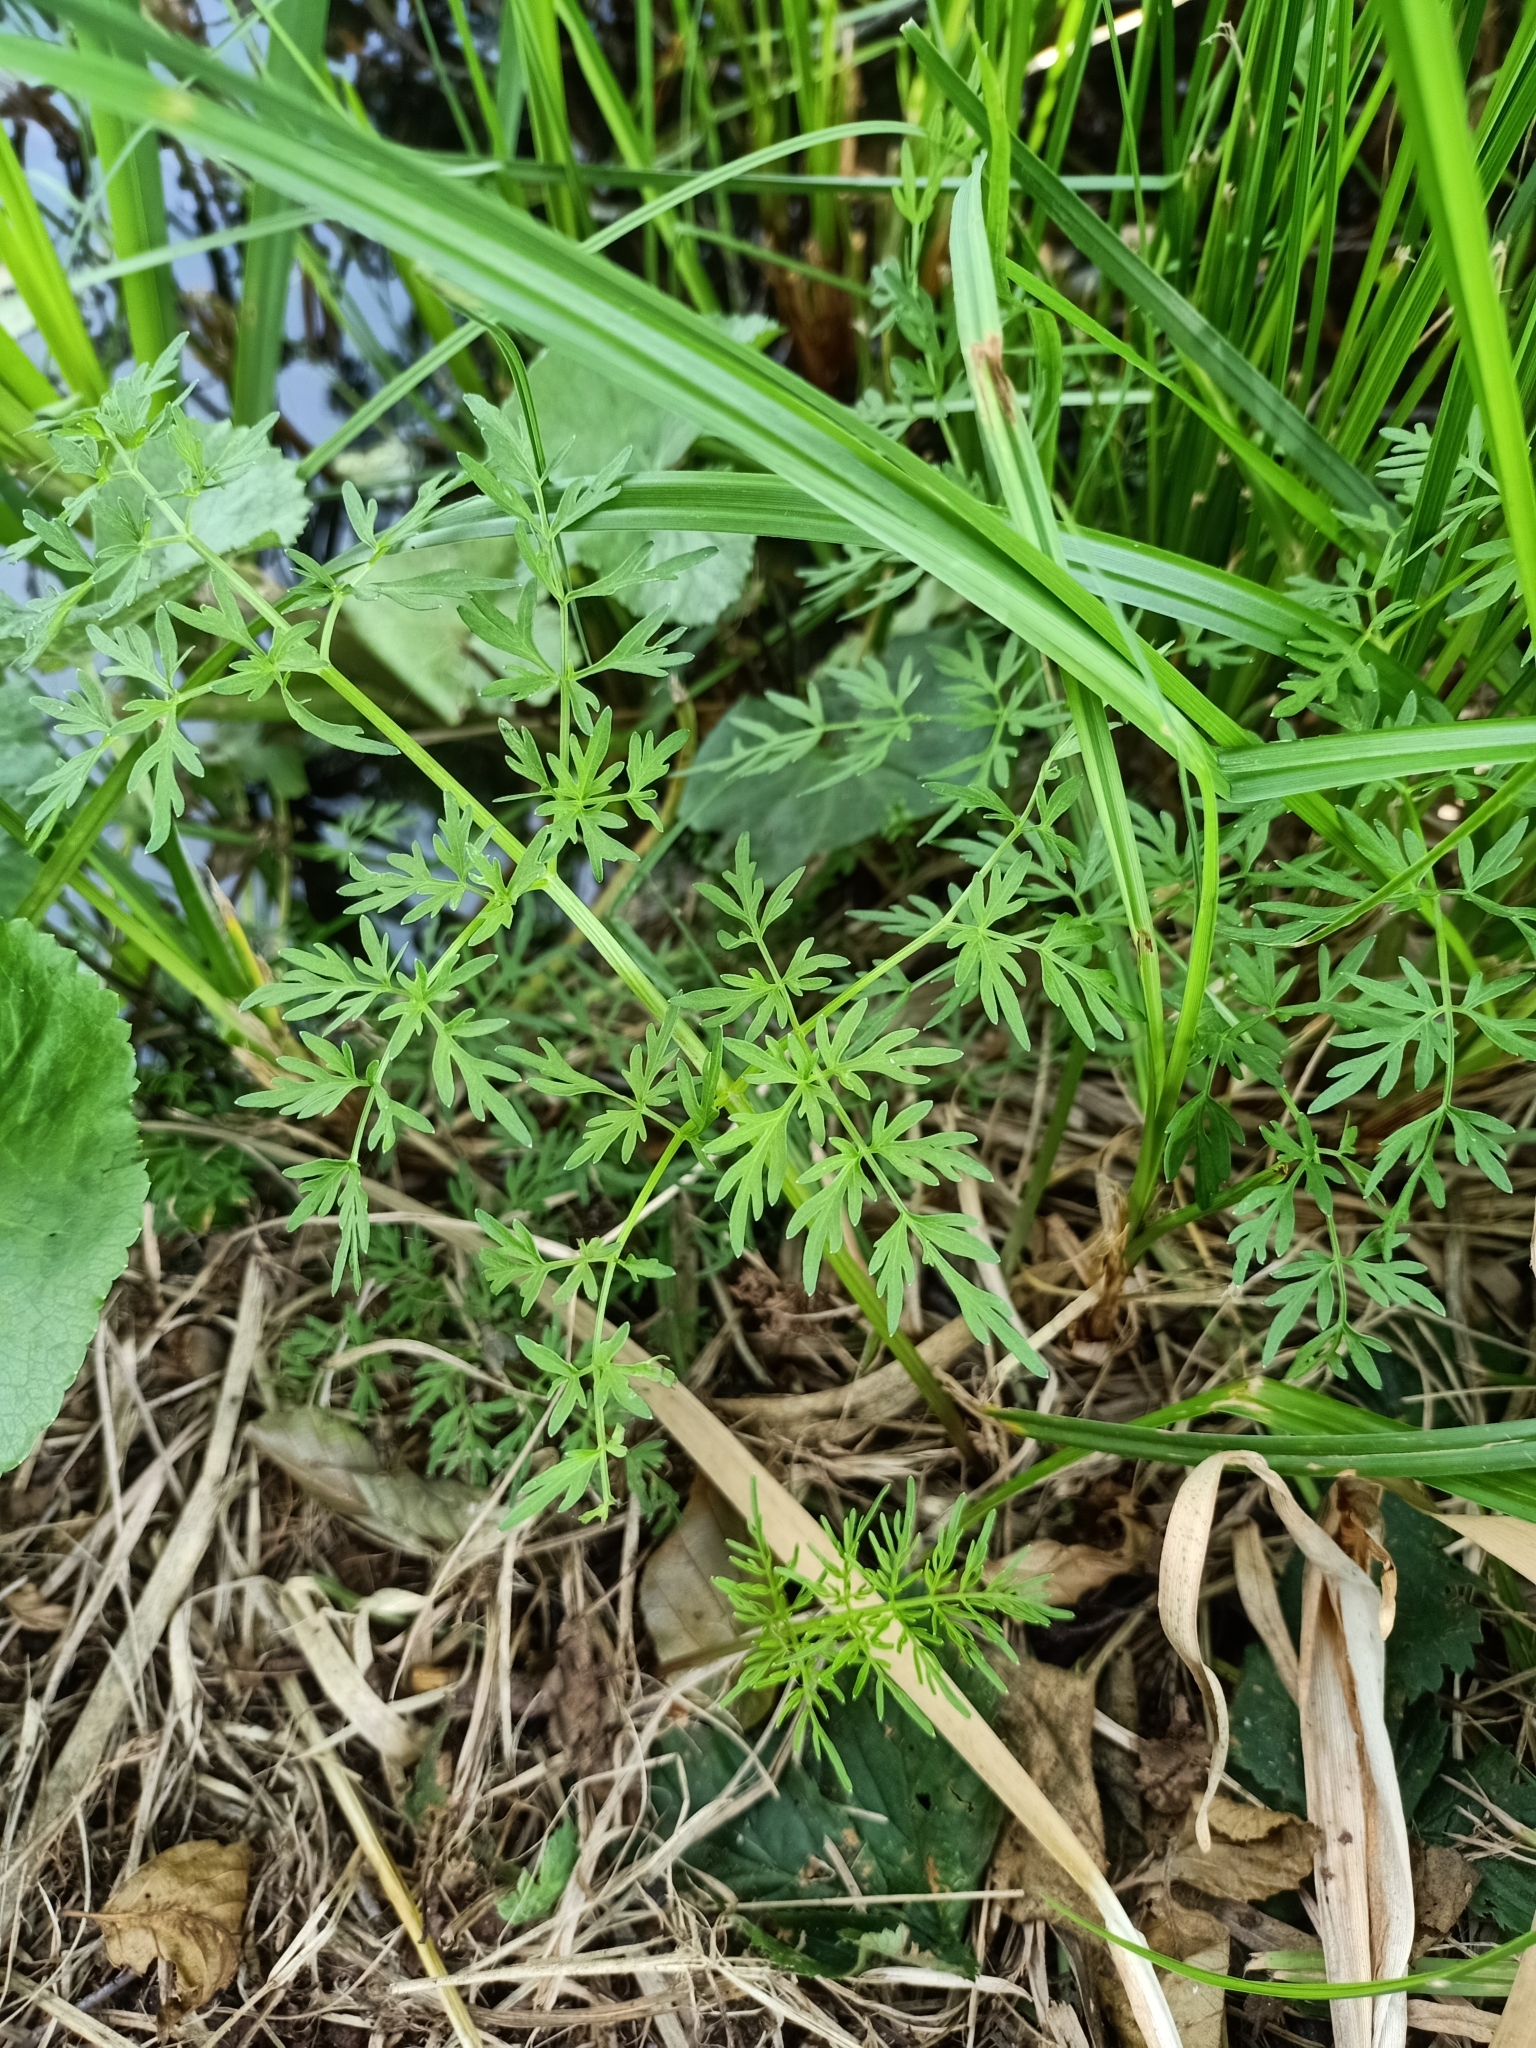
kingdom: Plantae
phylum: Tracheophyta
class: Magnoliopsida
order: Apiales
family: Apiaceae
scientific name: Apiaceae
